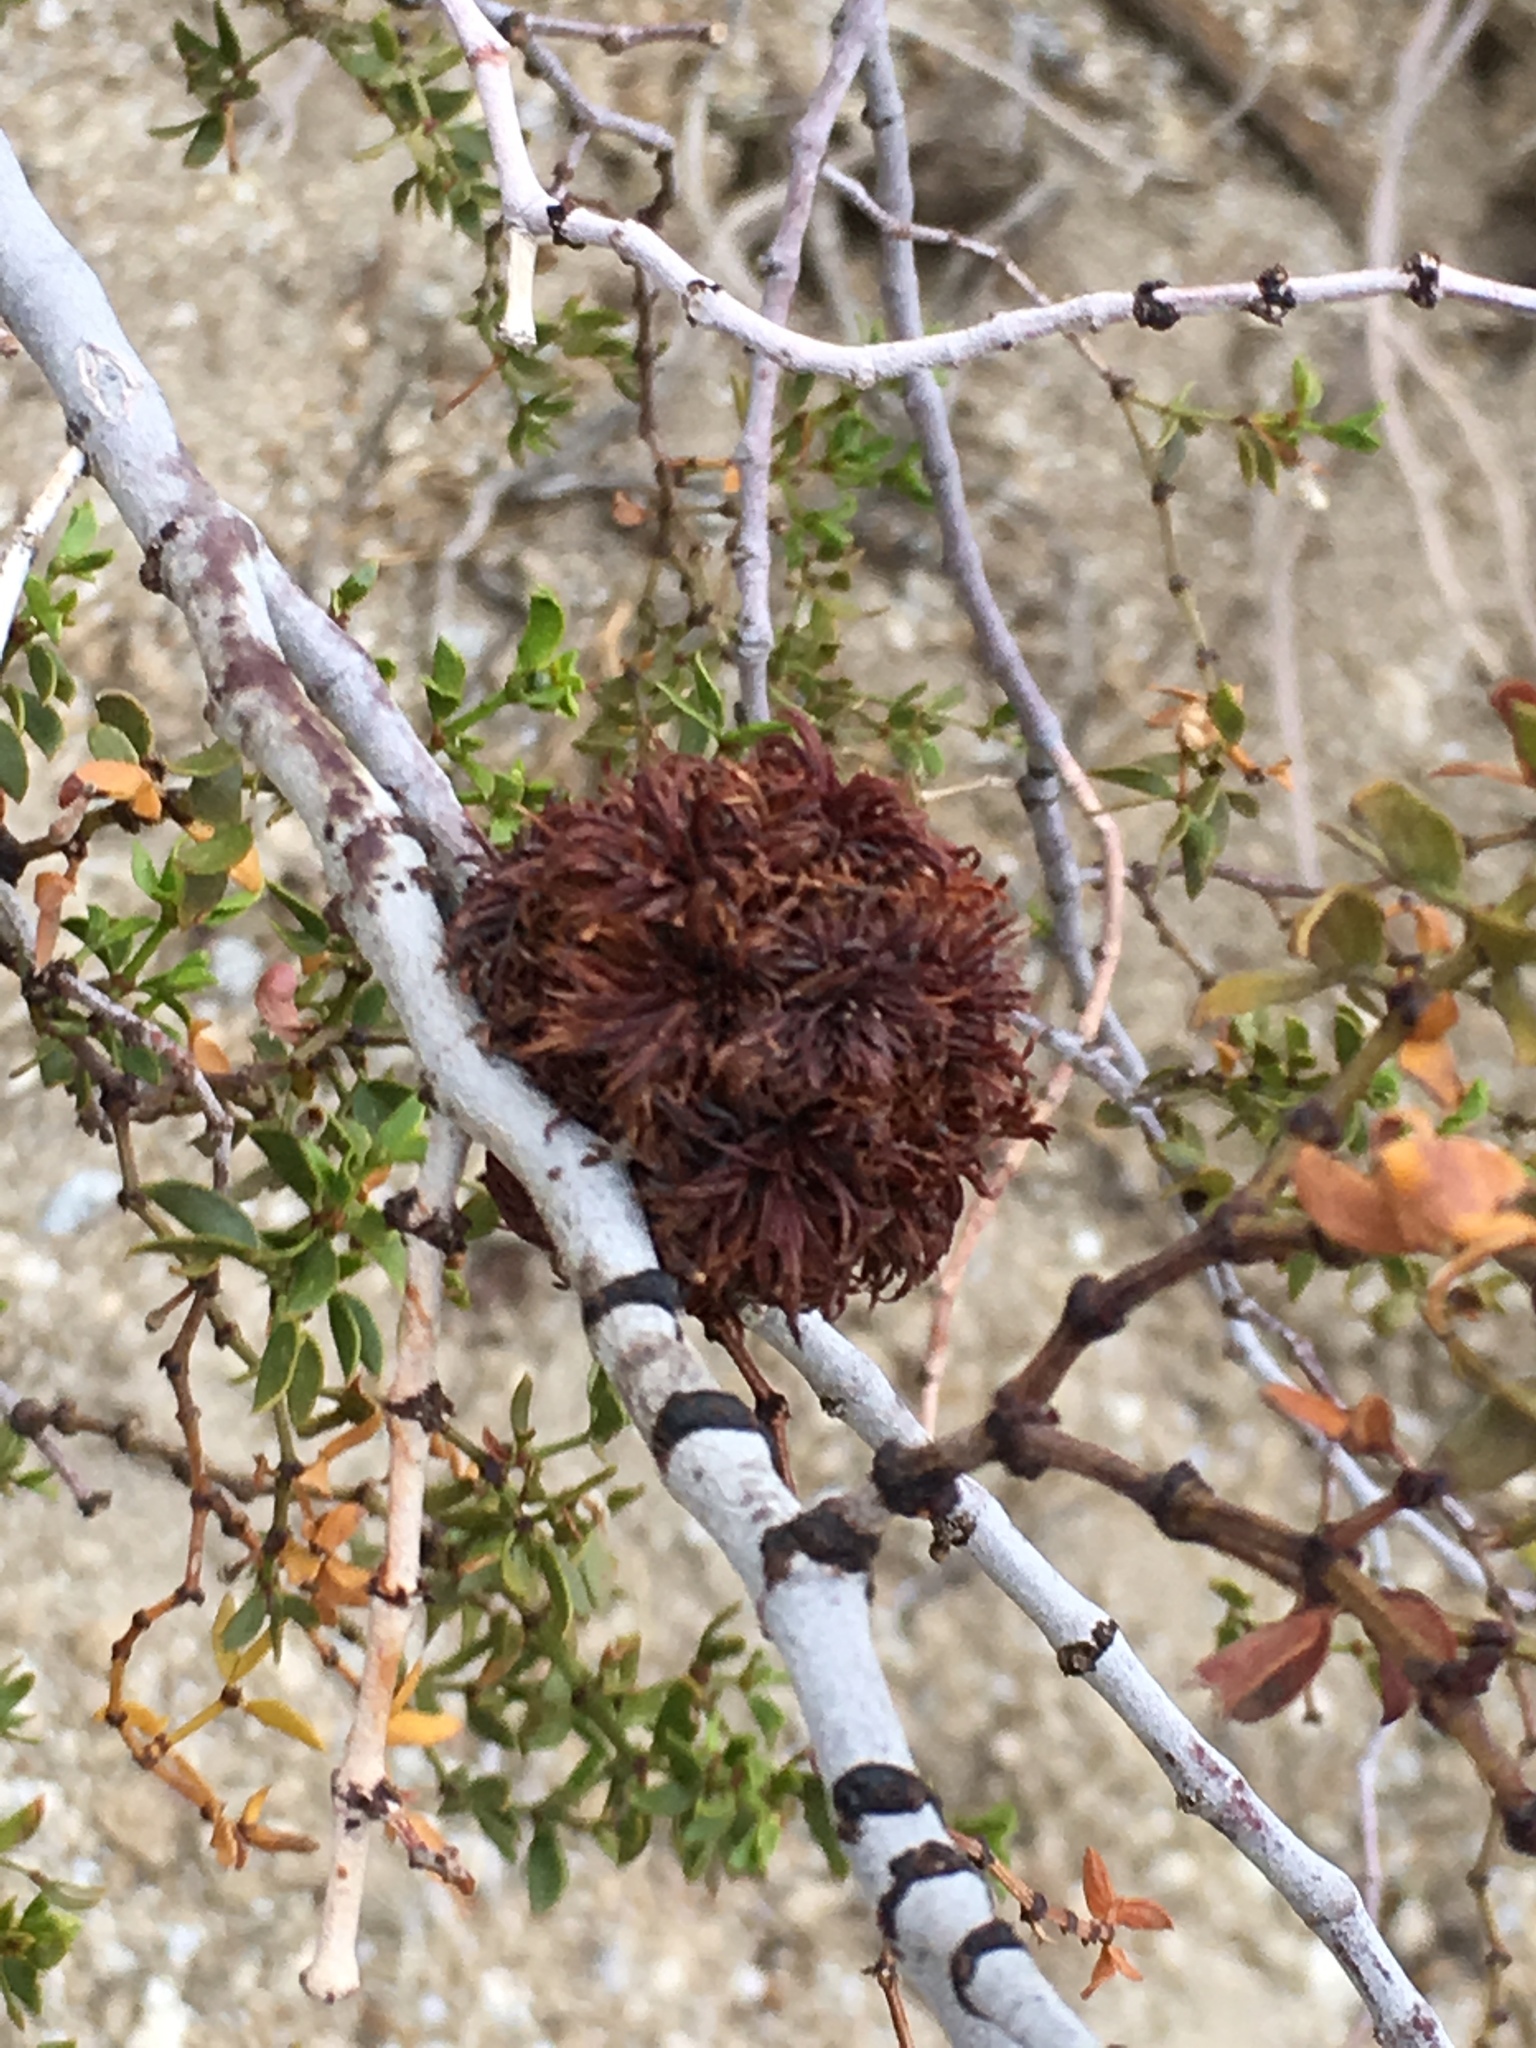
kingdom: Plantae
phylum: Tracheophyta
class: Magnoliopsida
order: Zygophyllales
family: Zygophyllaceae
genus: Larrea
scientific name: Larrea tridentata
